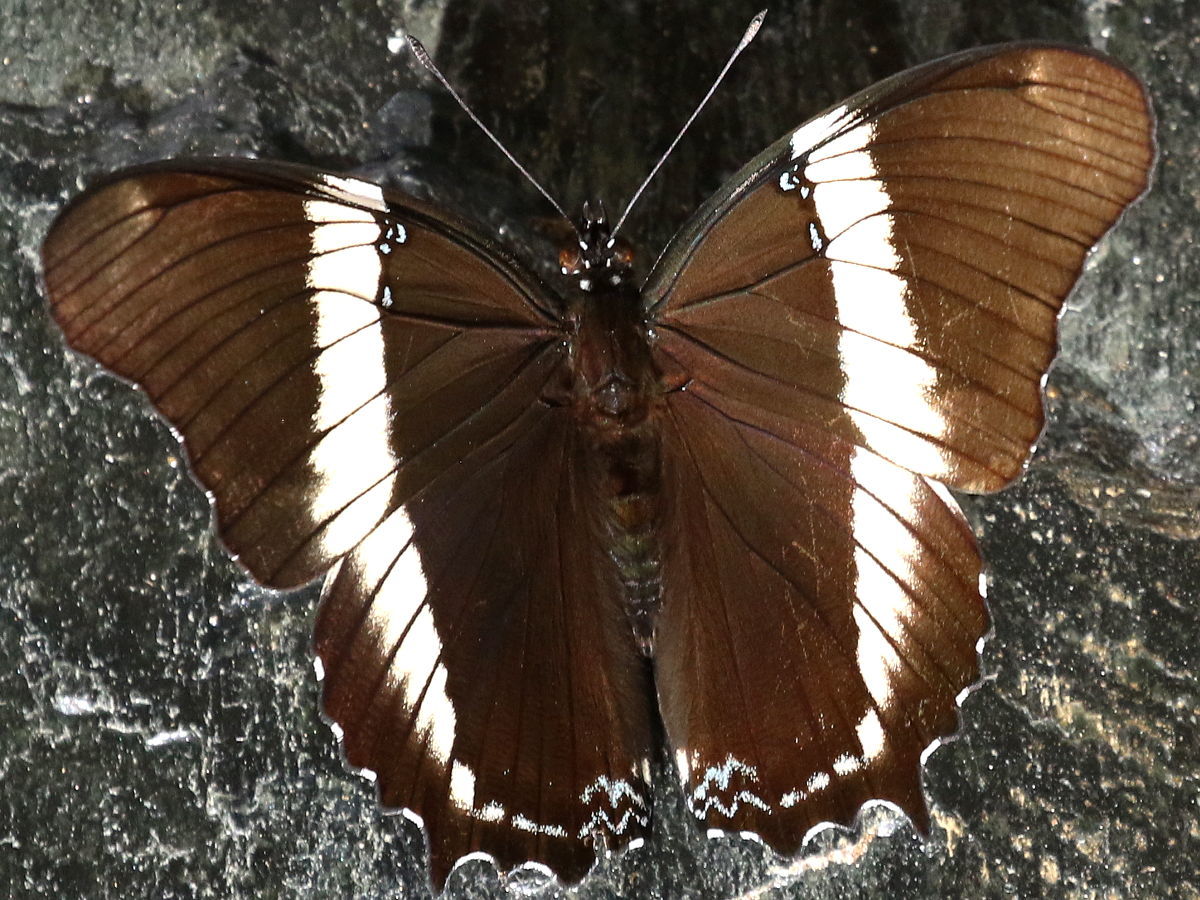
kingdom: Animalia
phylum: Arthropoda
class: Insecta
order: Lepidoptera
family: Nymphalidae
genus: Siproeta
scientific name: Siproeta epaphus
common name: Rusty-tipped page
